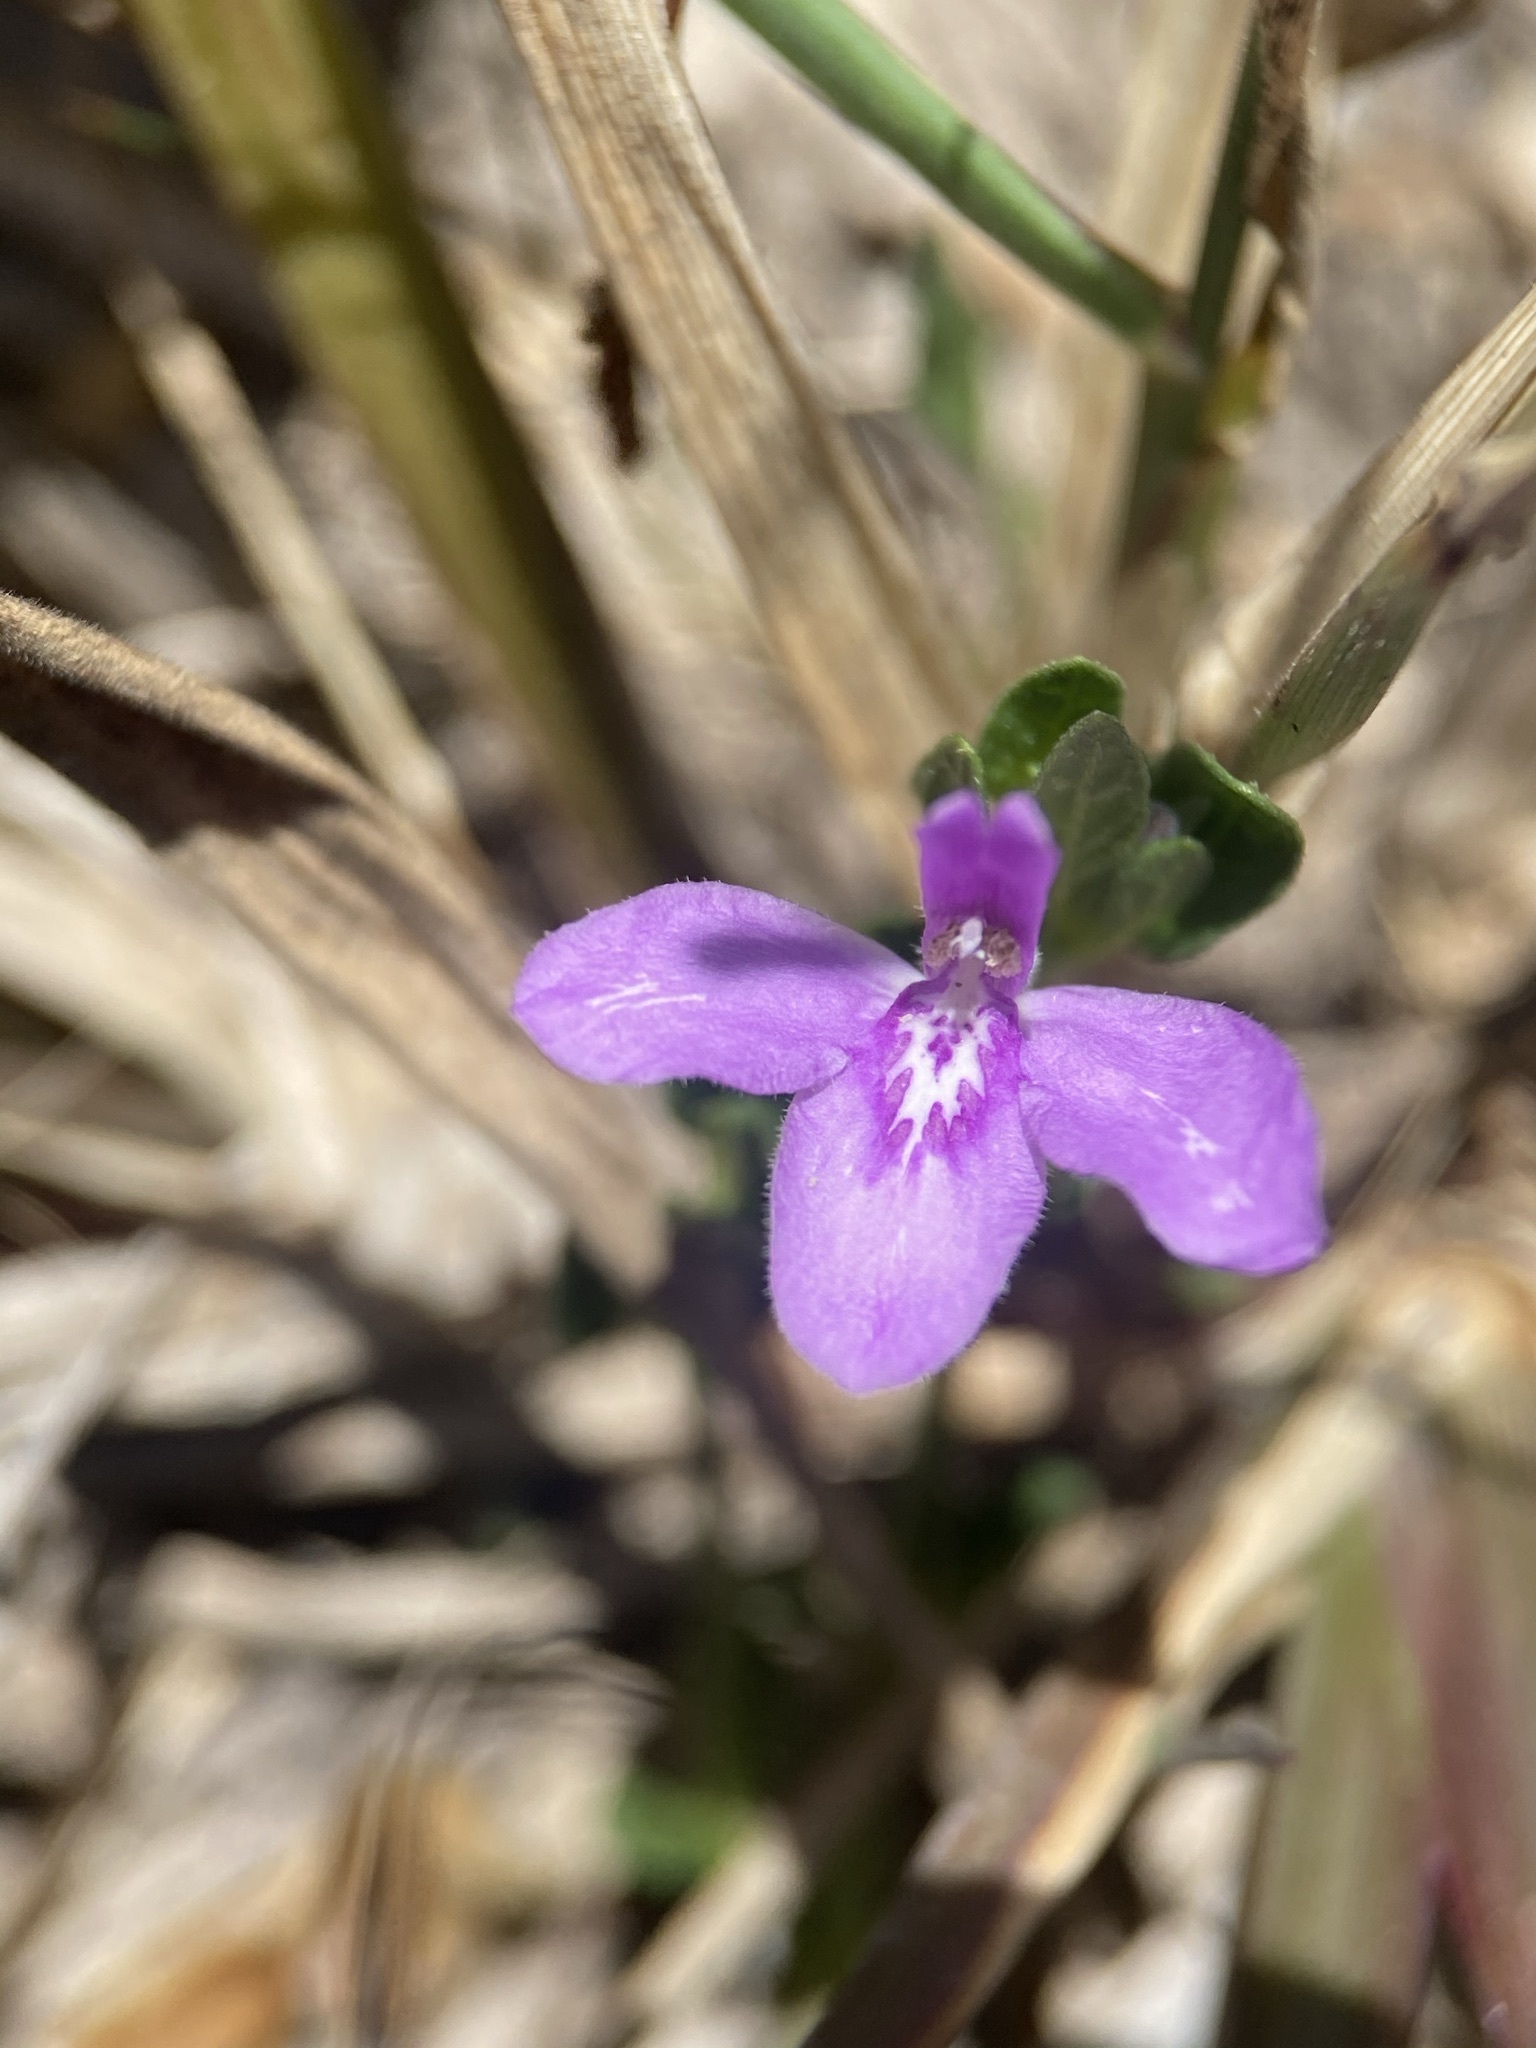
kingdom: Plantae
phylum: Tracheophyta
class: Magnoliopsida
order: Lamiales
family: Acanthaceae
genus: Justicia
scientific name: Justicia pilosella
